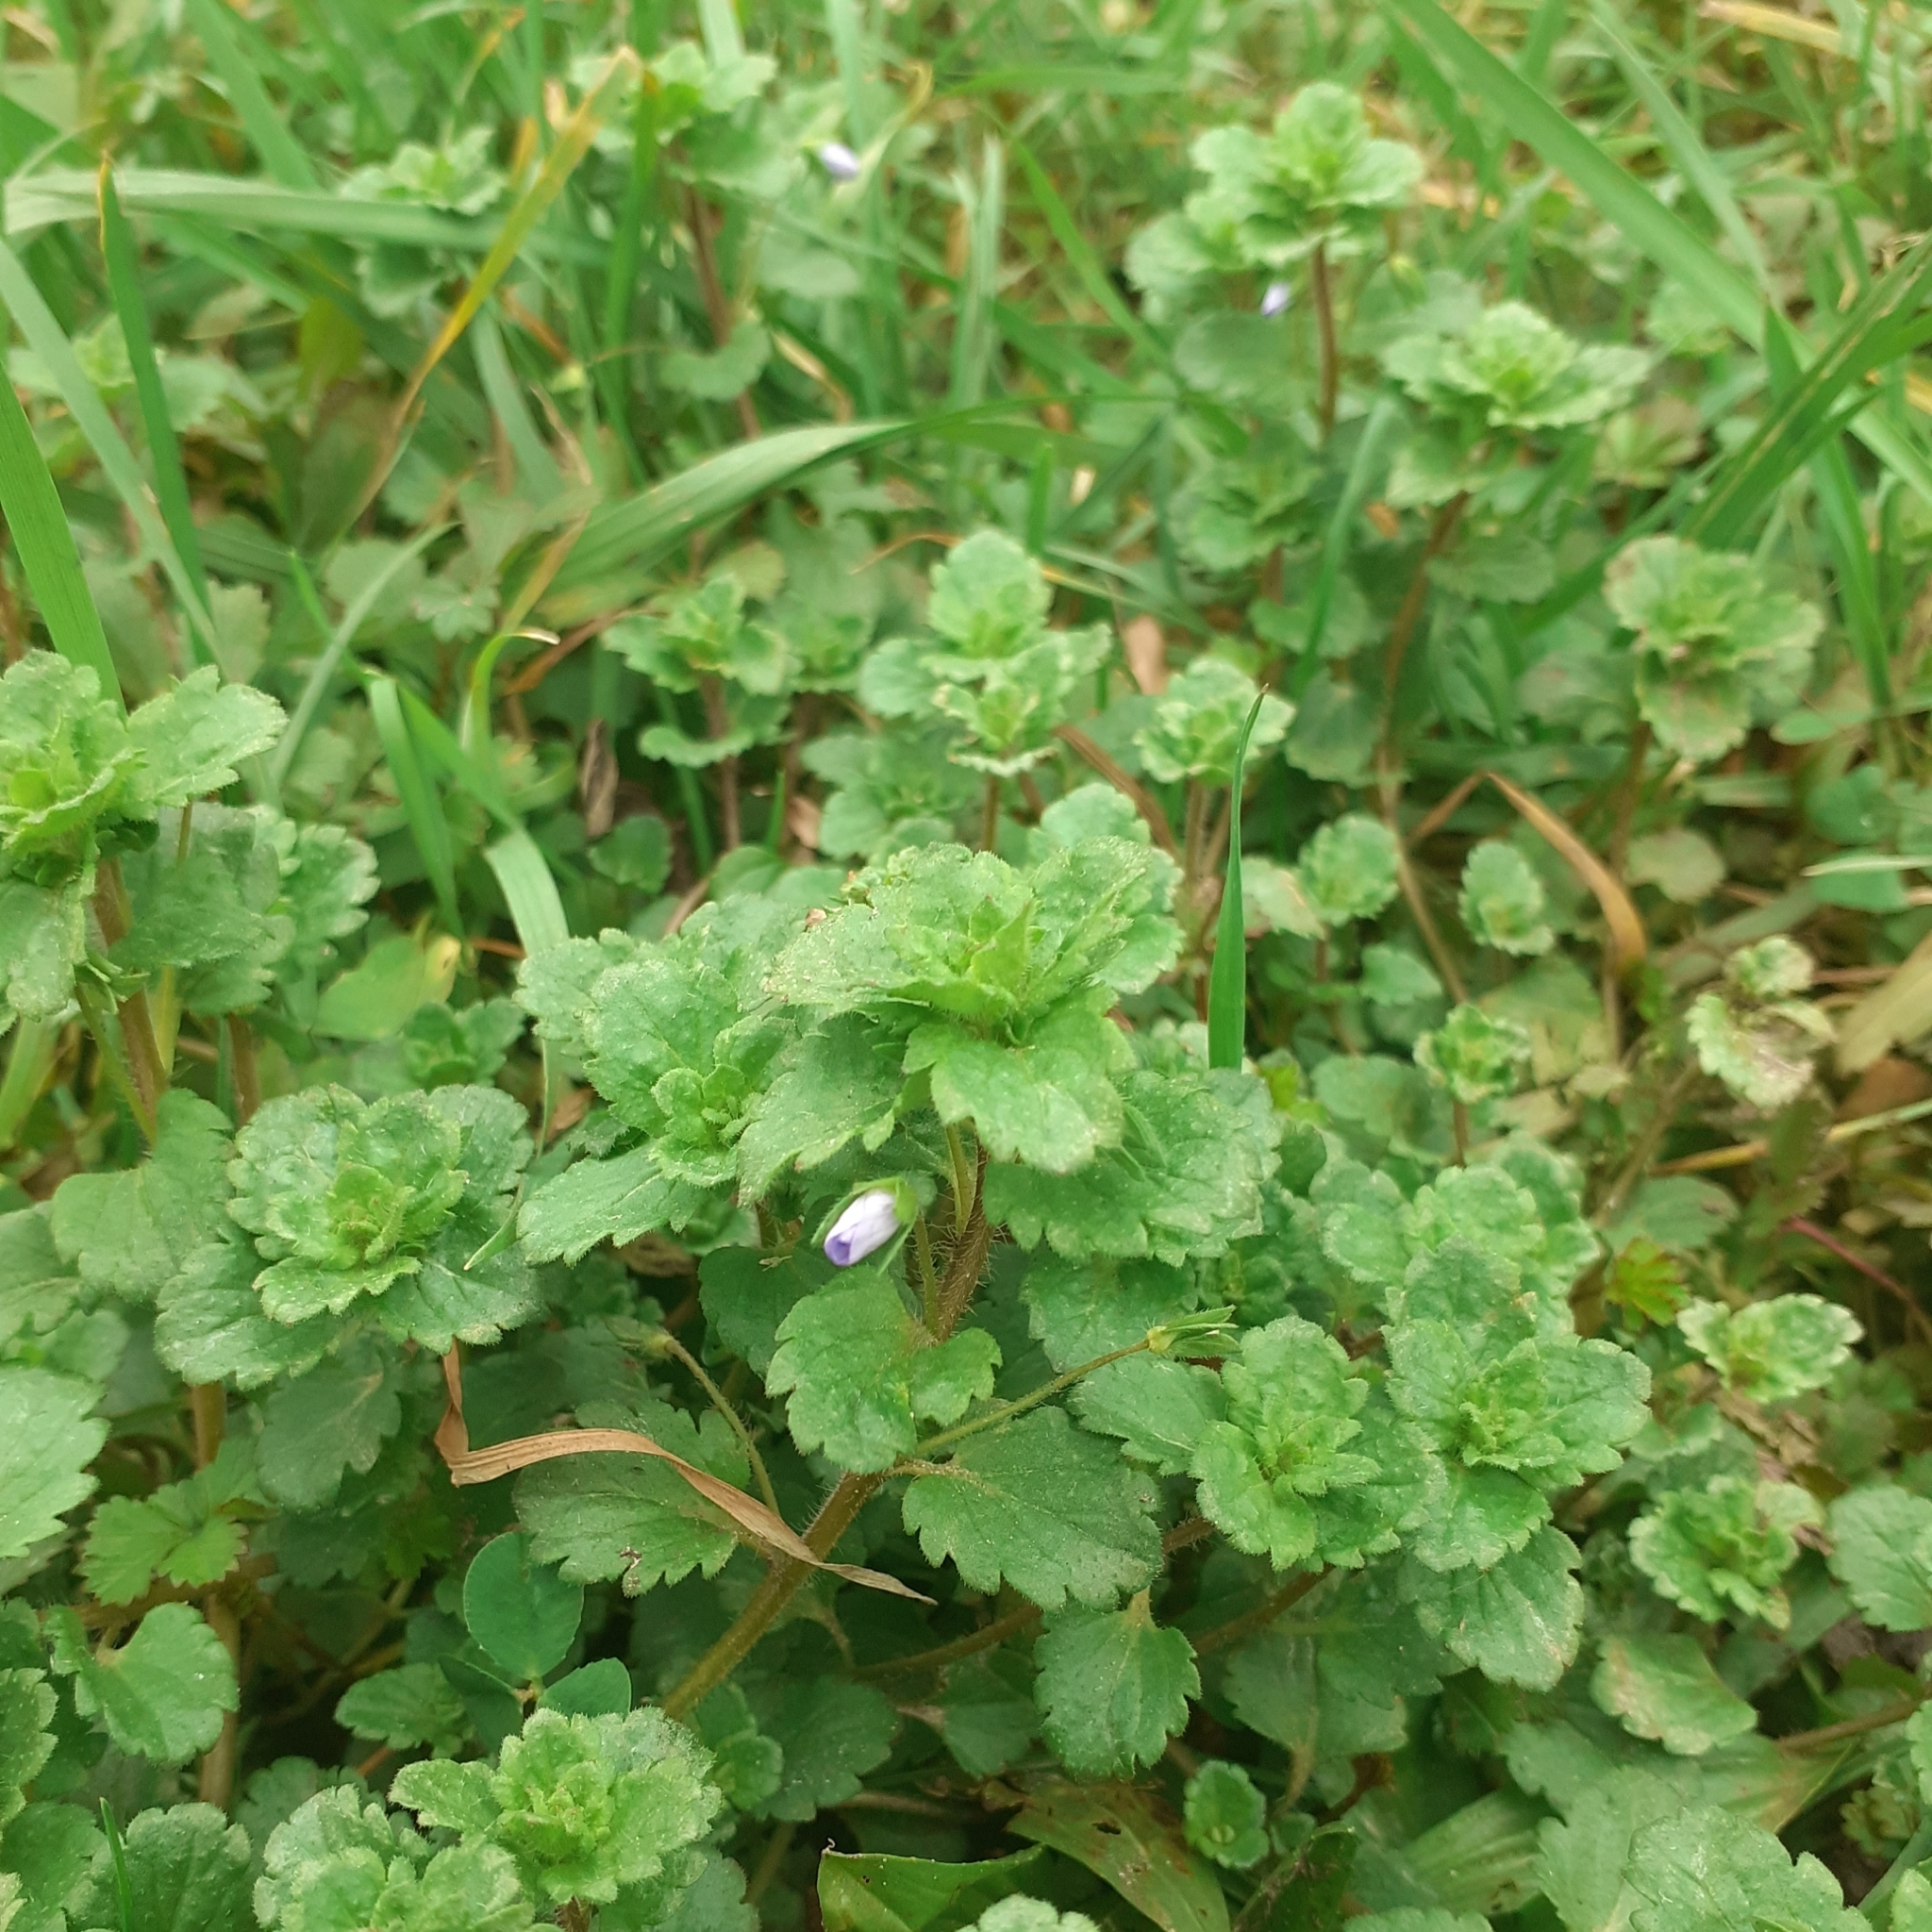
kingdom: Plantae
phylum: Tracheophyta
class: Magnoliopsida
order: Lamiales
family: Plantaginaceae
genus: Veronica
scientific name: Veronica persica
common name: Common field-speedwell
